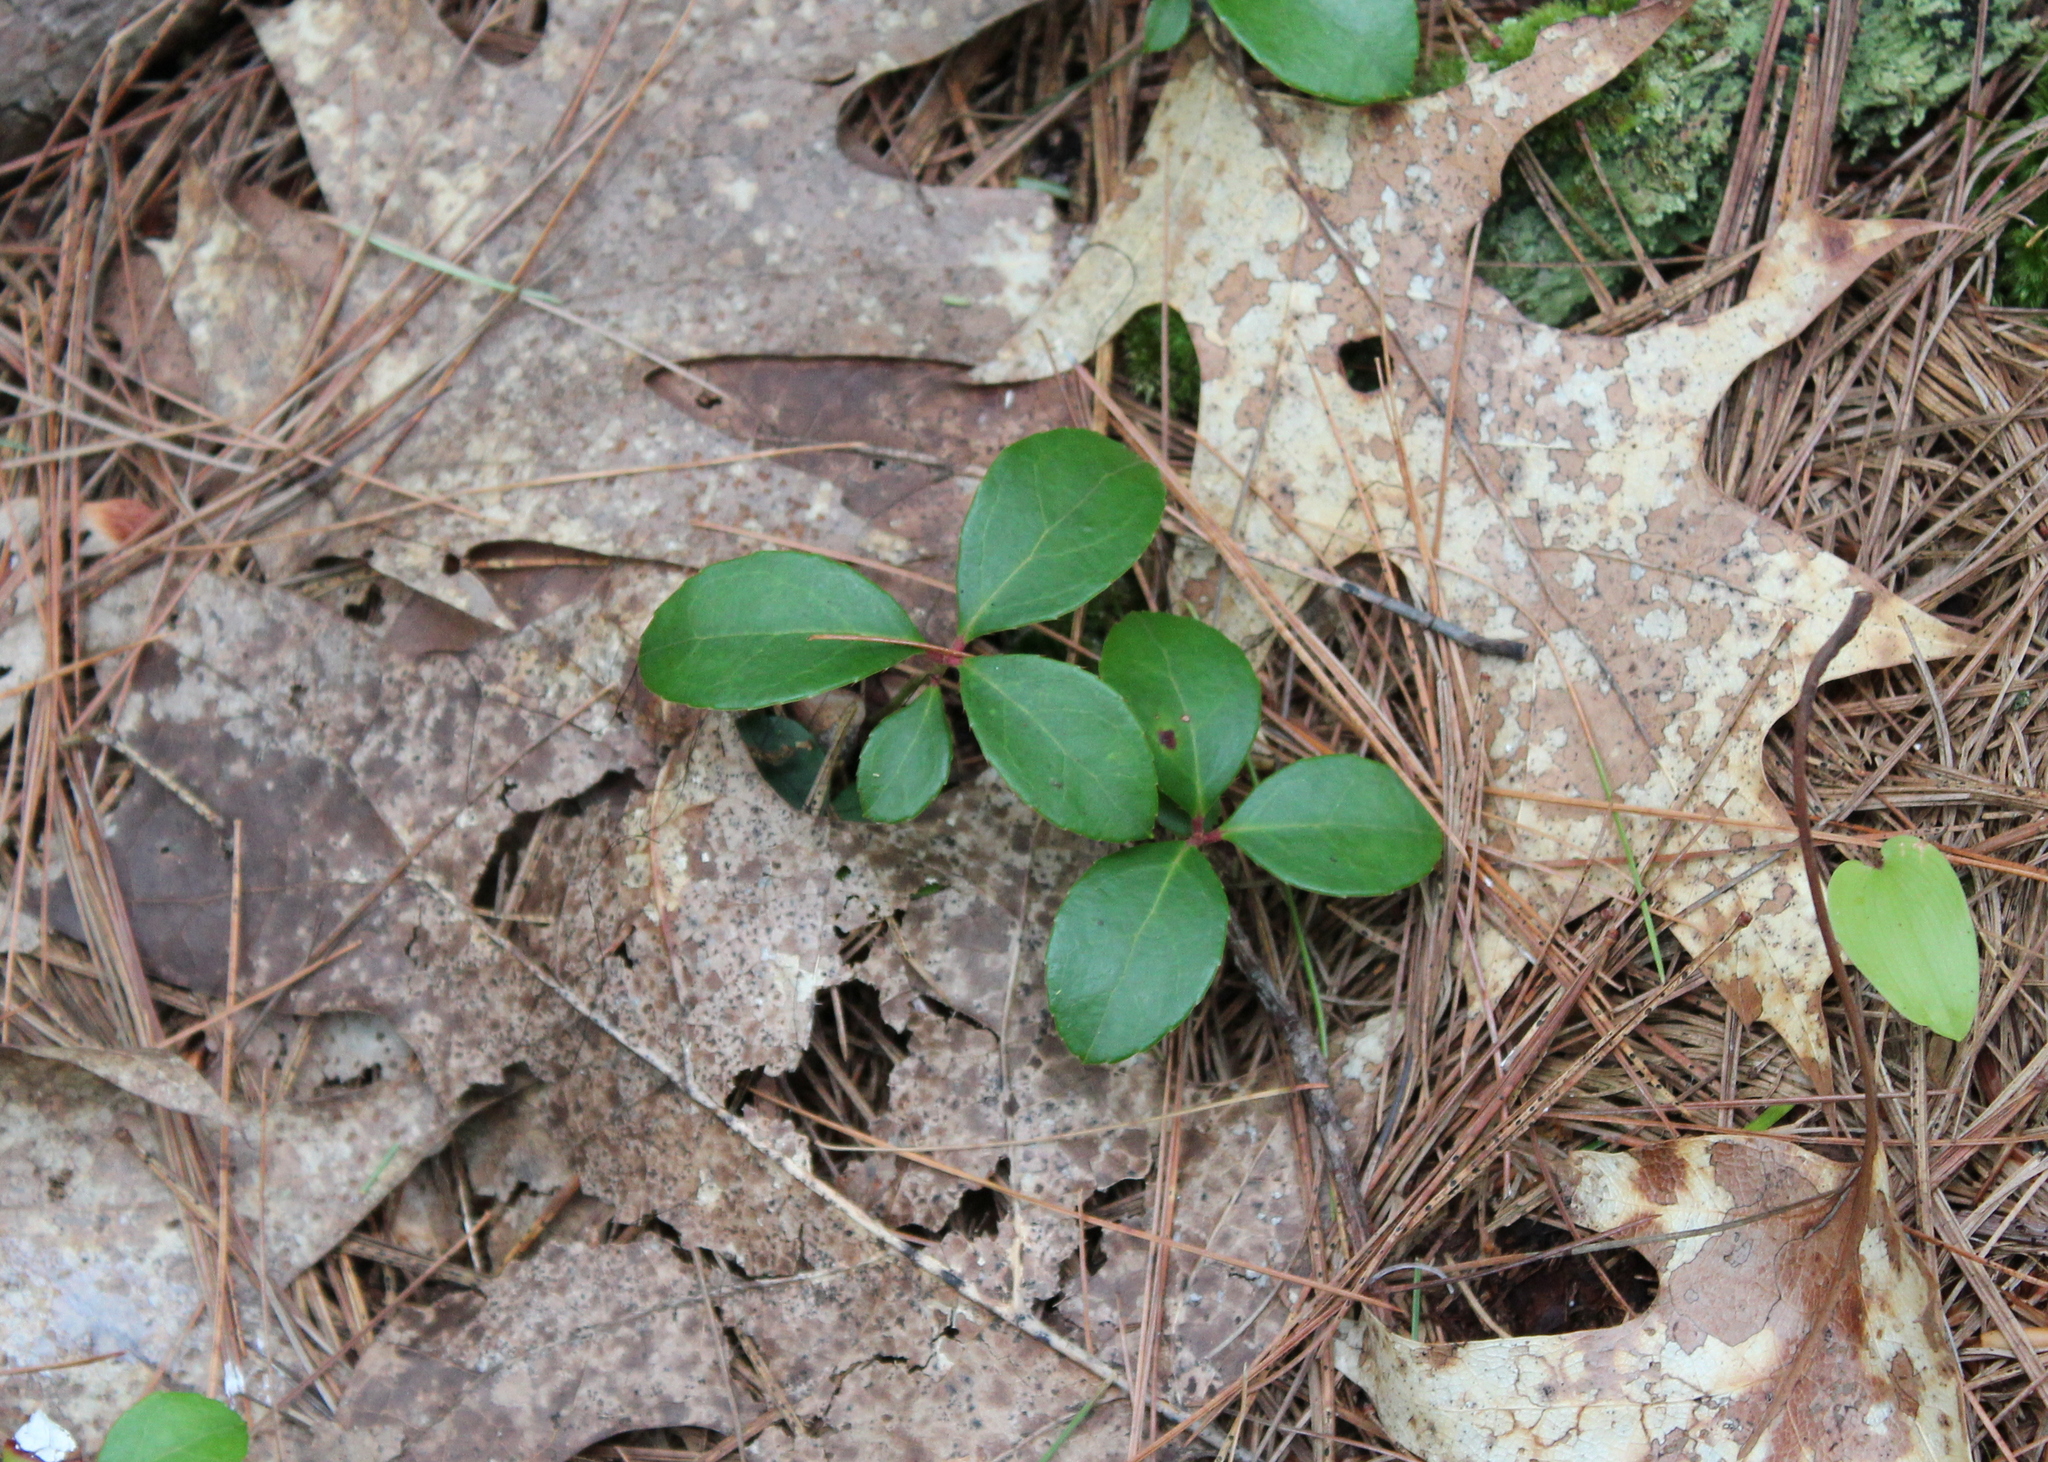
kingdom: Plantae
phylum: Tracheophyta
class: Magnoliopsida
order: Ericales
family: Ericaceae
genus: Gaultheria
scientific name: Gaultheria procumbens
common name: Checkerberry
